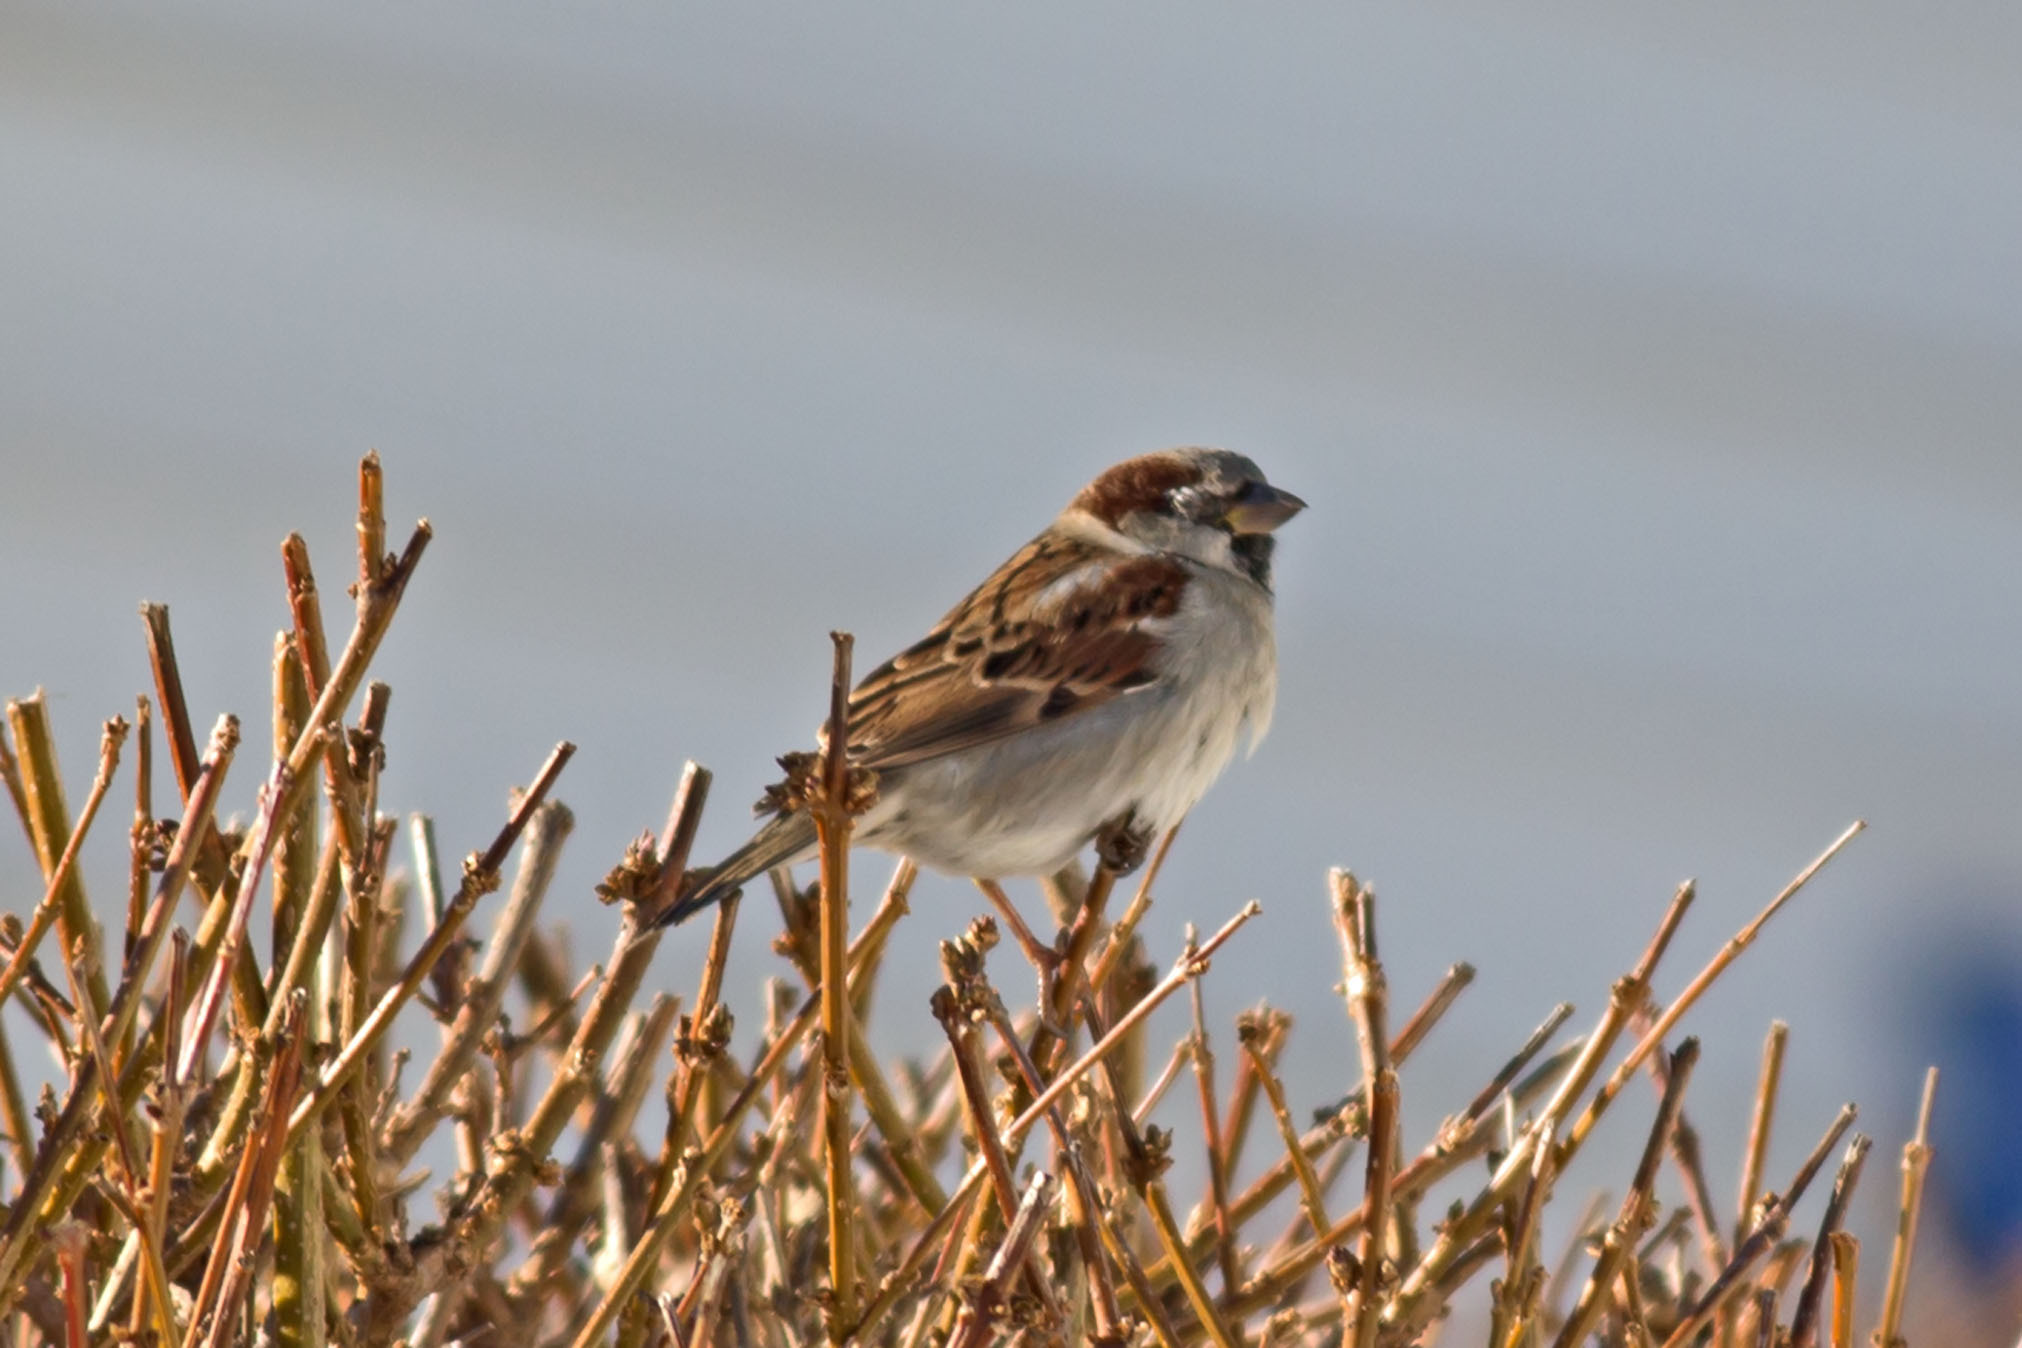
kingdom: Animalia
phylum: Chordata
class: Aves
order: Passeriformes
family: Passeridae
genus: Passer
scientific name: Passer domesticus
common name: House sparrow
